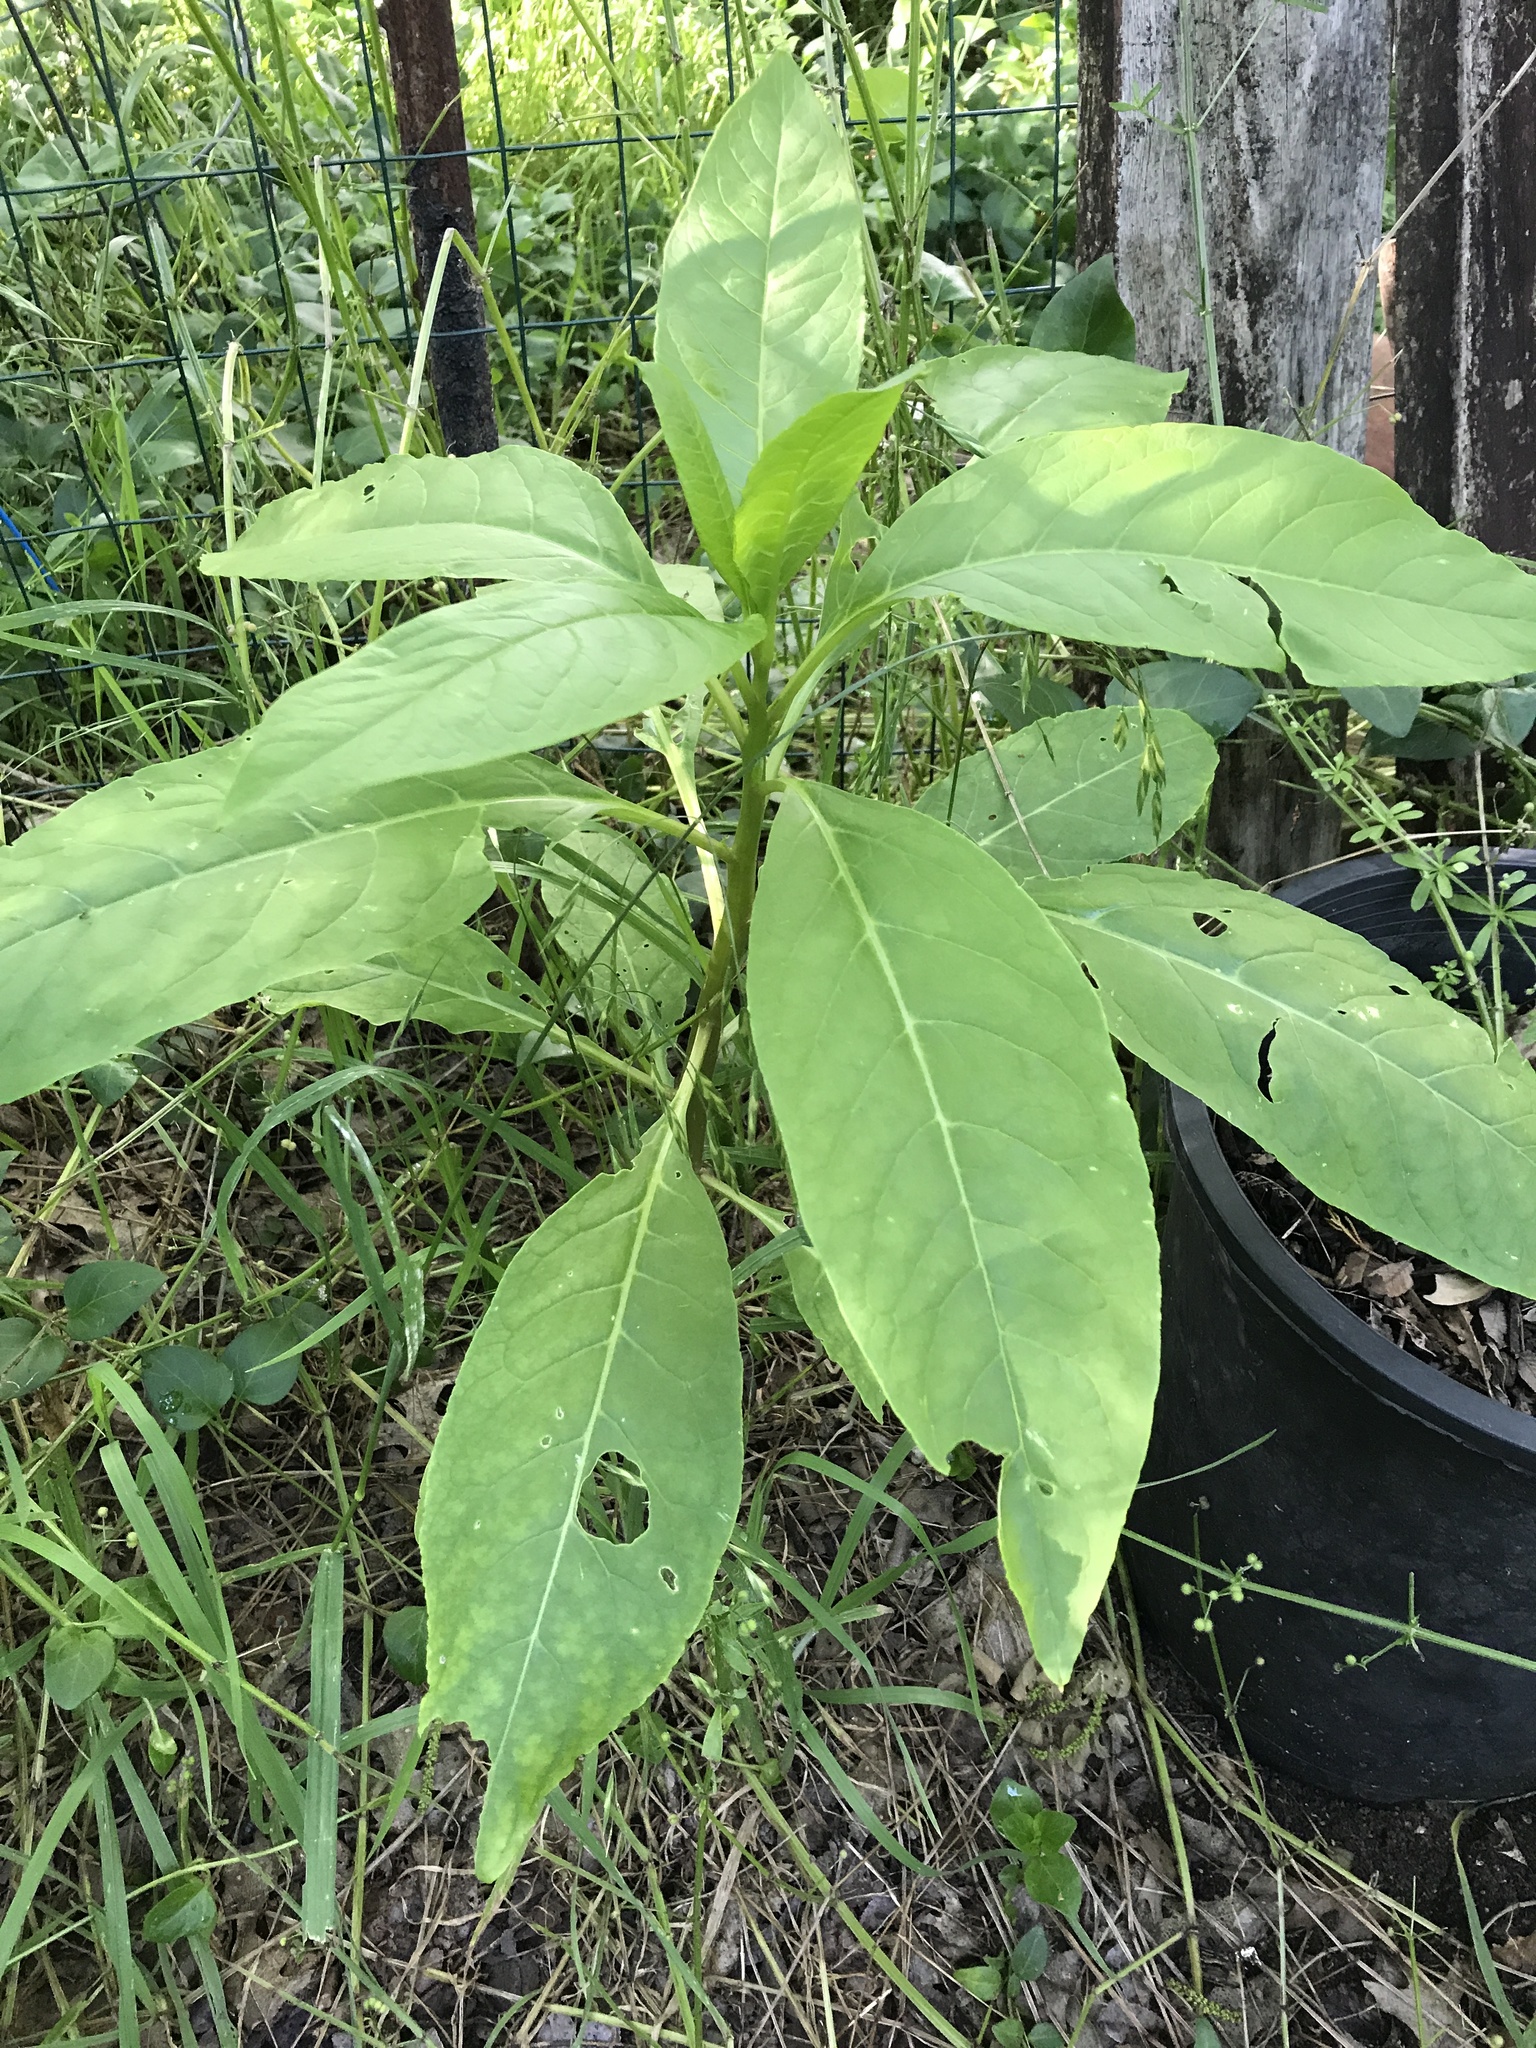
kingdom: Plantae
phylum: Tracheophyta
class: Magnoliopsida
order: Caryophyllales
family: Phytolaccaceae
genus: Phytolacca
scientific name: Phytolacca americana
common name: American pokeweed
